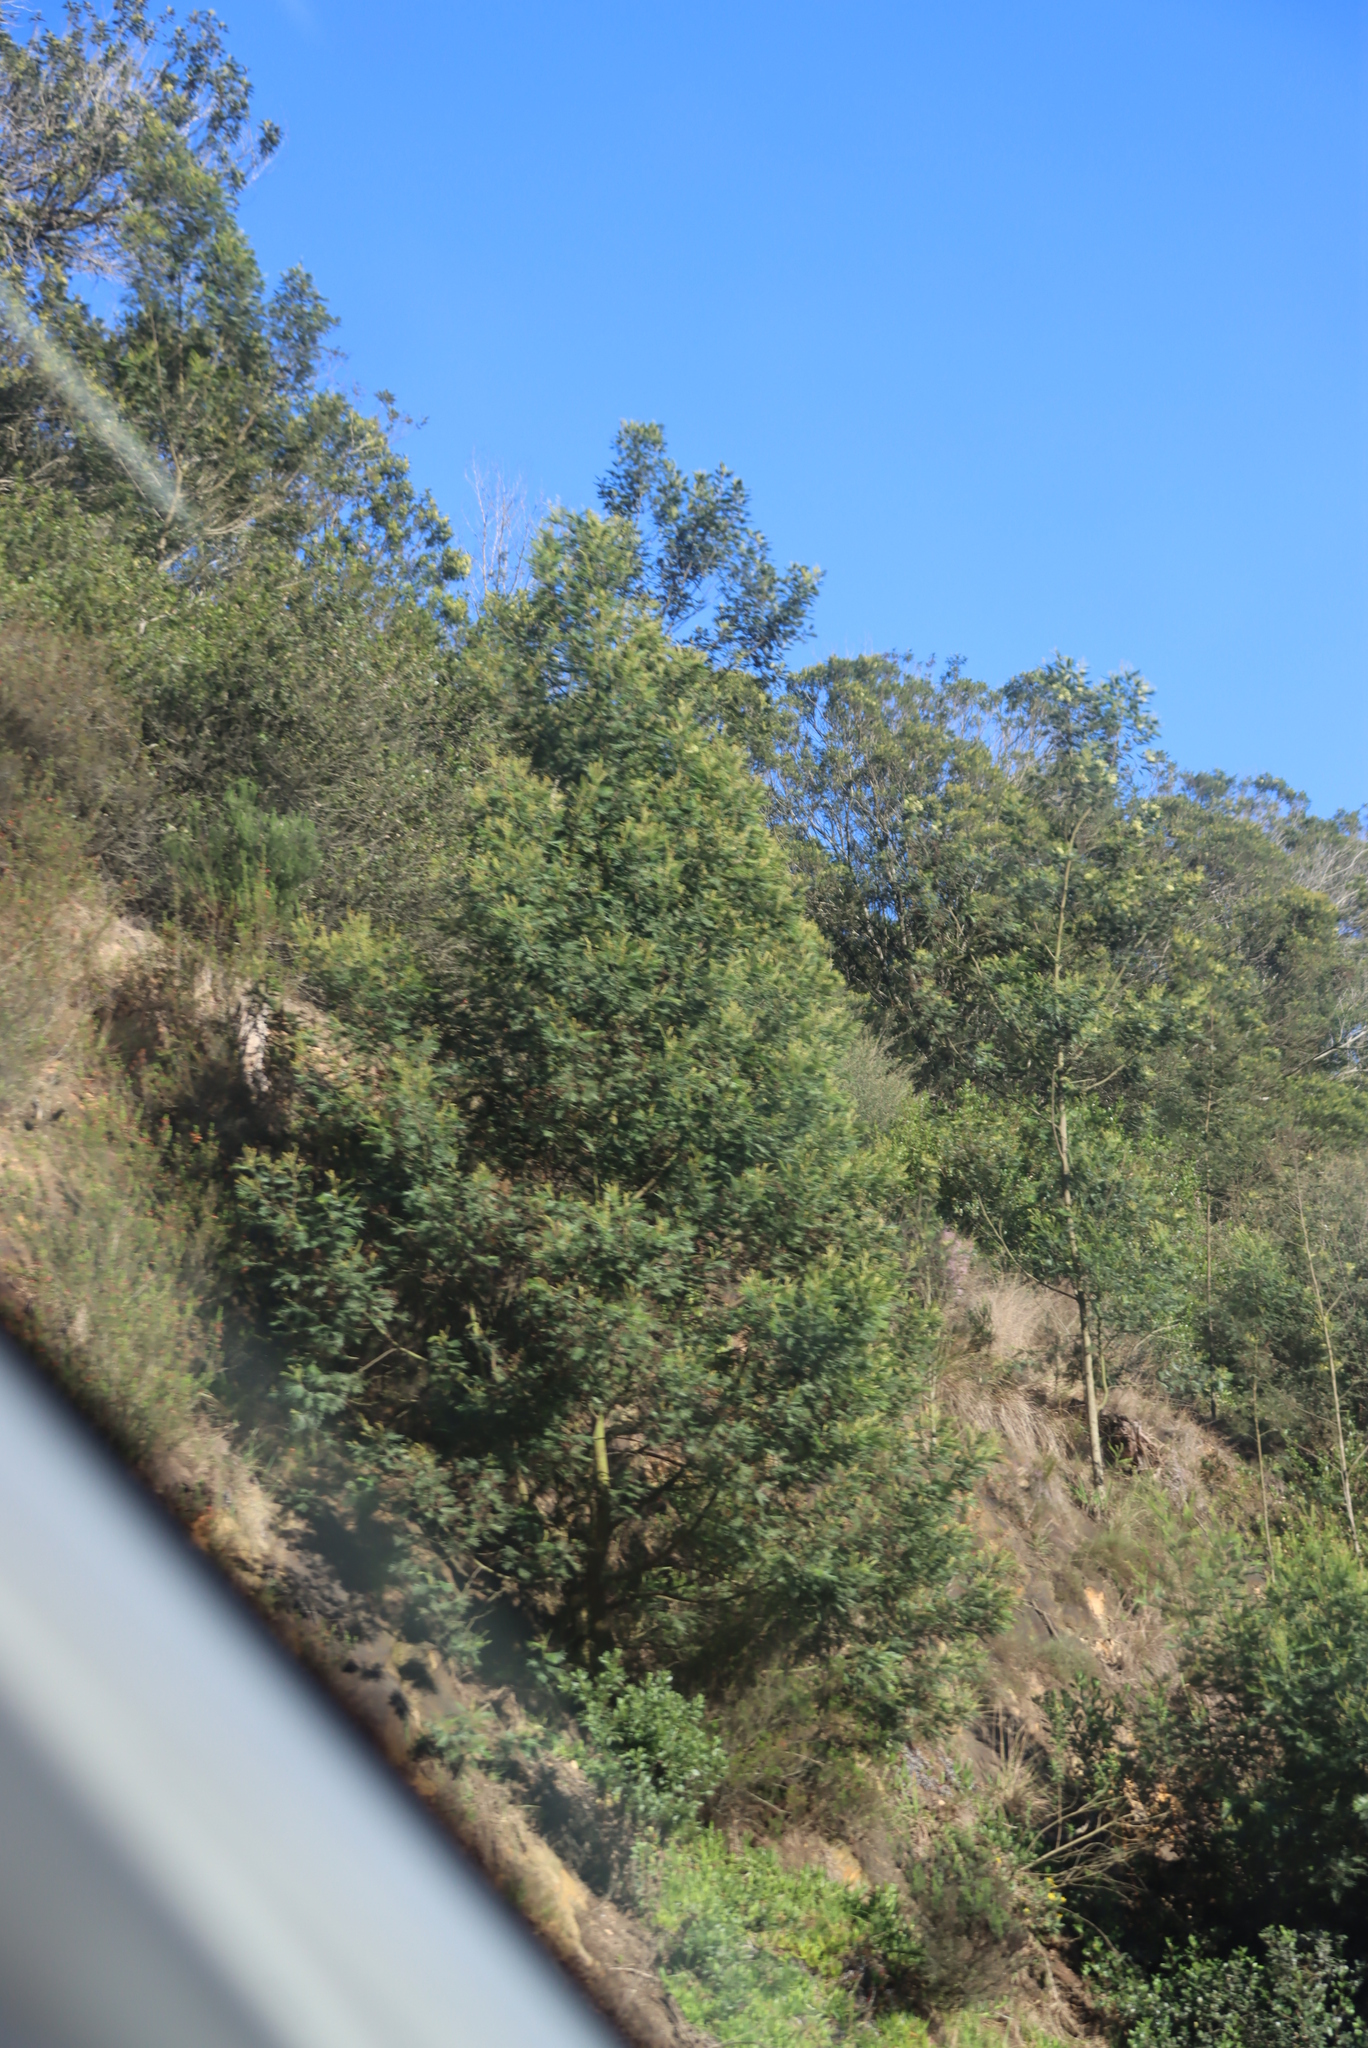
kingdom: Plantae
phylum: Tracheophyta
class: Magnoliopsida
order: Fabales
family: Fabaceae
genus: Acacia
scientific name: Acacia mearnsii
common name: Black wattle
